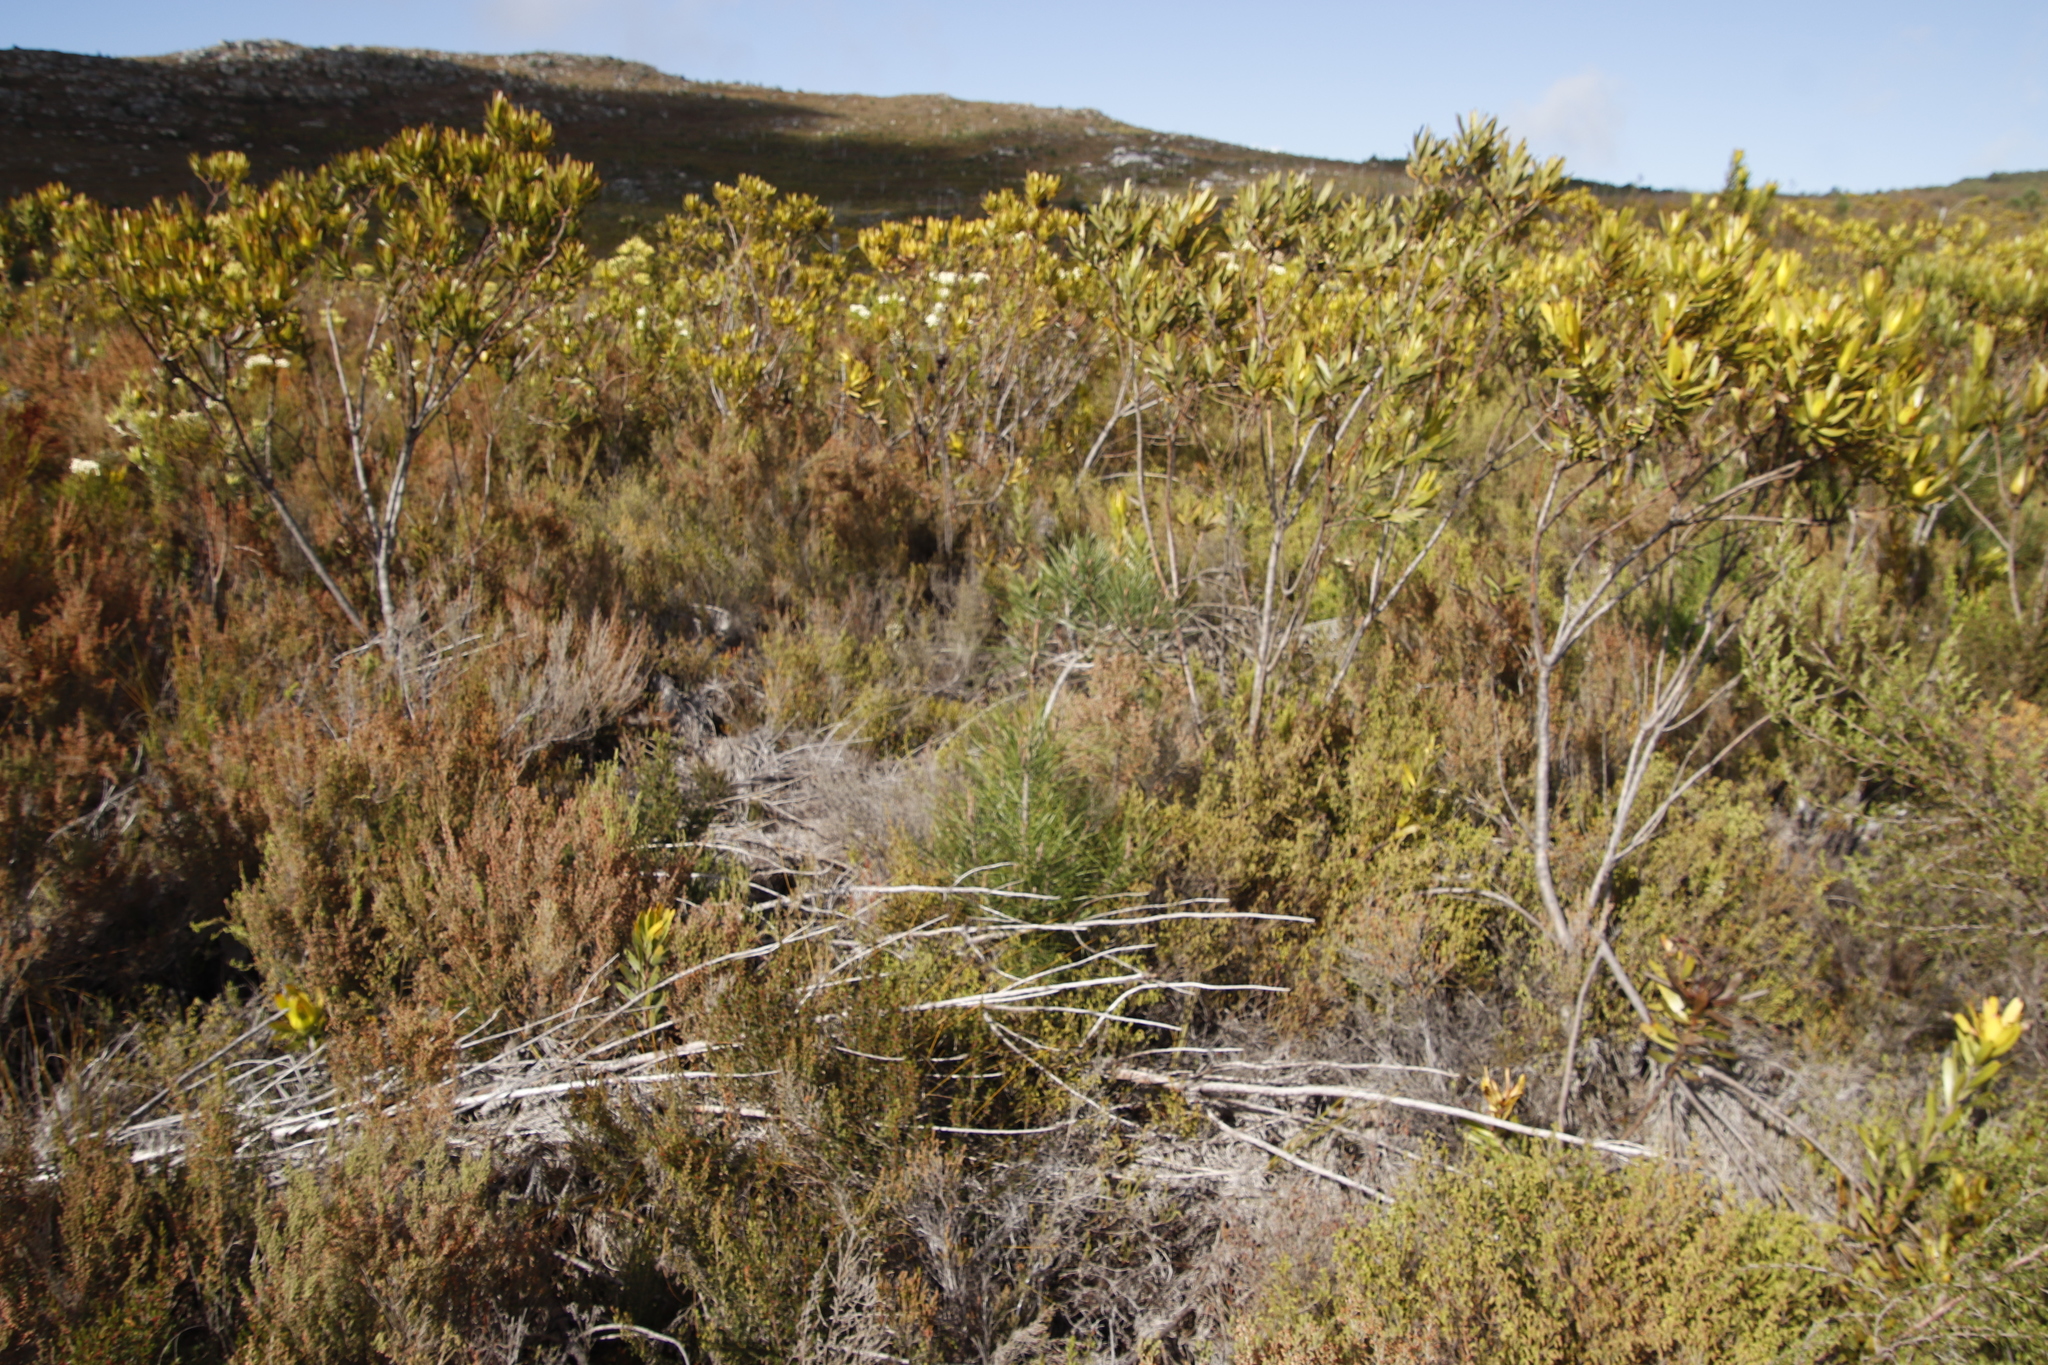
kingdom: Plantae
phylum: Tracheophyta
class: Pinopsida
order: Pinales
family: Pinaceae
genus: Pinus
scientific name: Pinus pinaster
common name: Maritime pine
